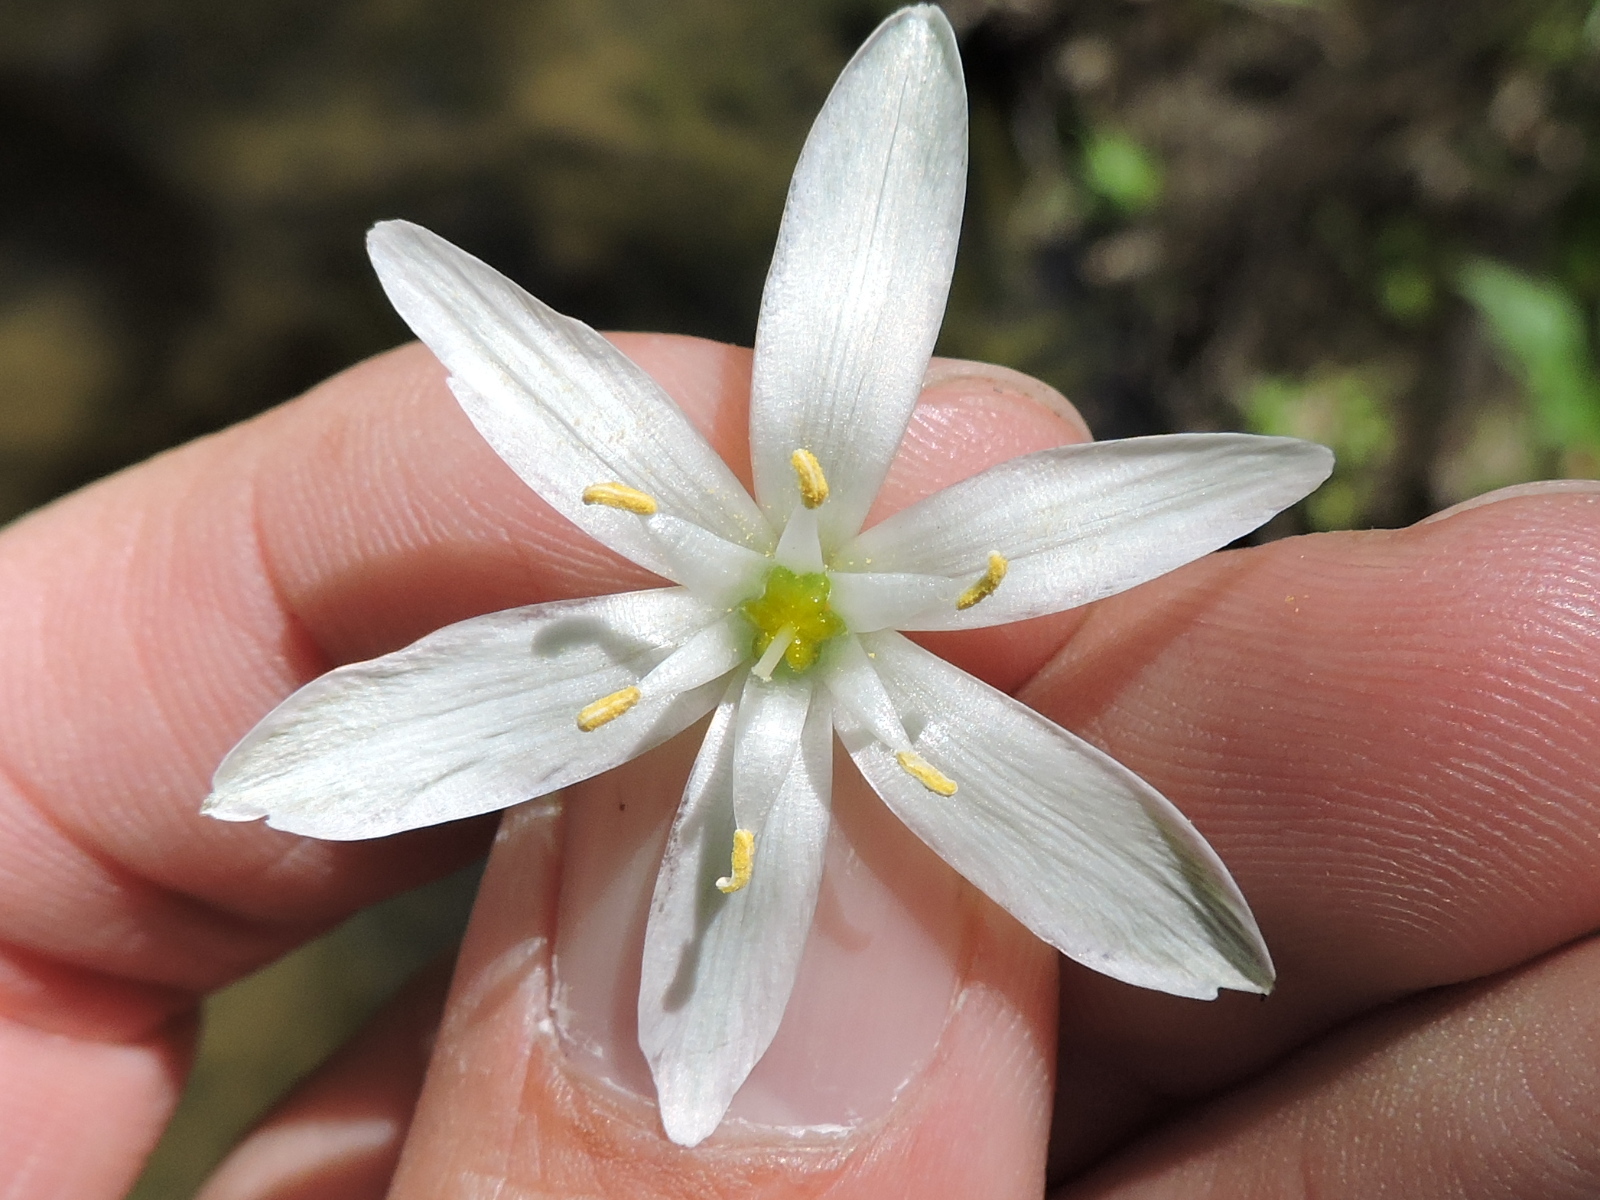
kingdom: Plantae
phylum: Tracheophyta
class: Liliopsida
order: Asparagales
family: Asparagaceae
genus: Ornithogalum
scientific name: Ornithogalum umbellatum
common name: Garden star-of-bethlehem
